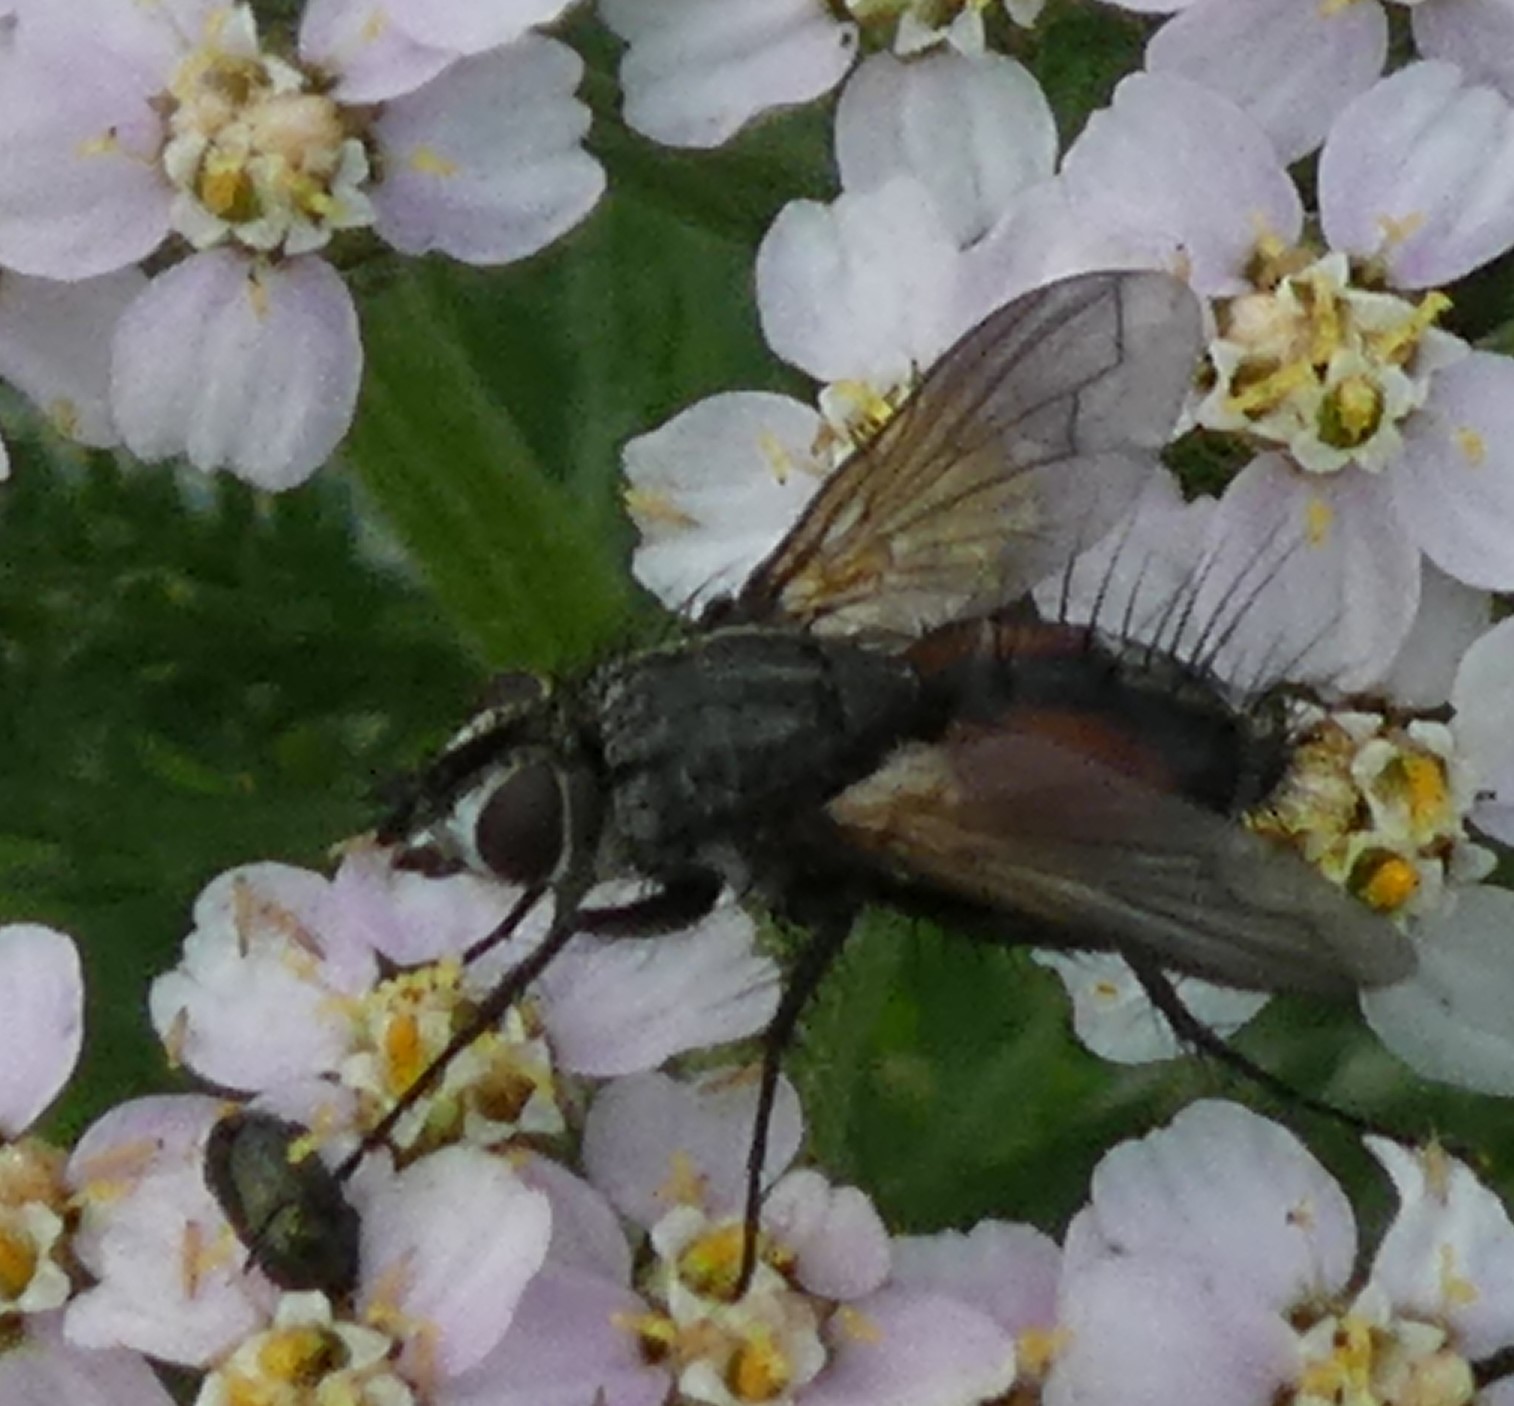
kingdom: Animalia
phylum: Arthropoda
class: Insecta
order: Diptera
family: Tachinidae
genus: Eriothrix
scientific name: Eriothrix rufomaculatus
